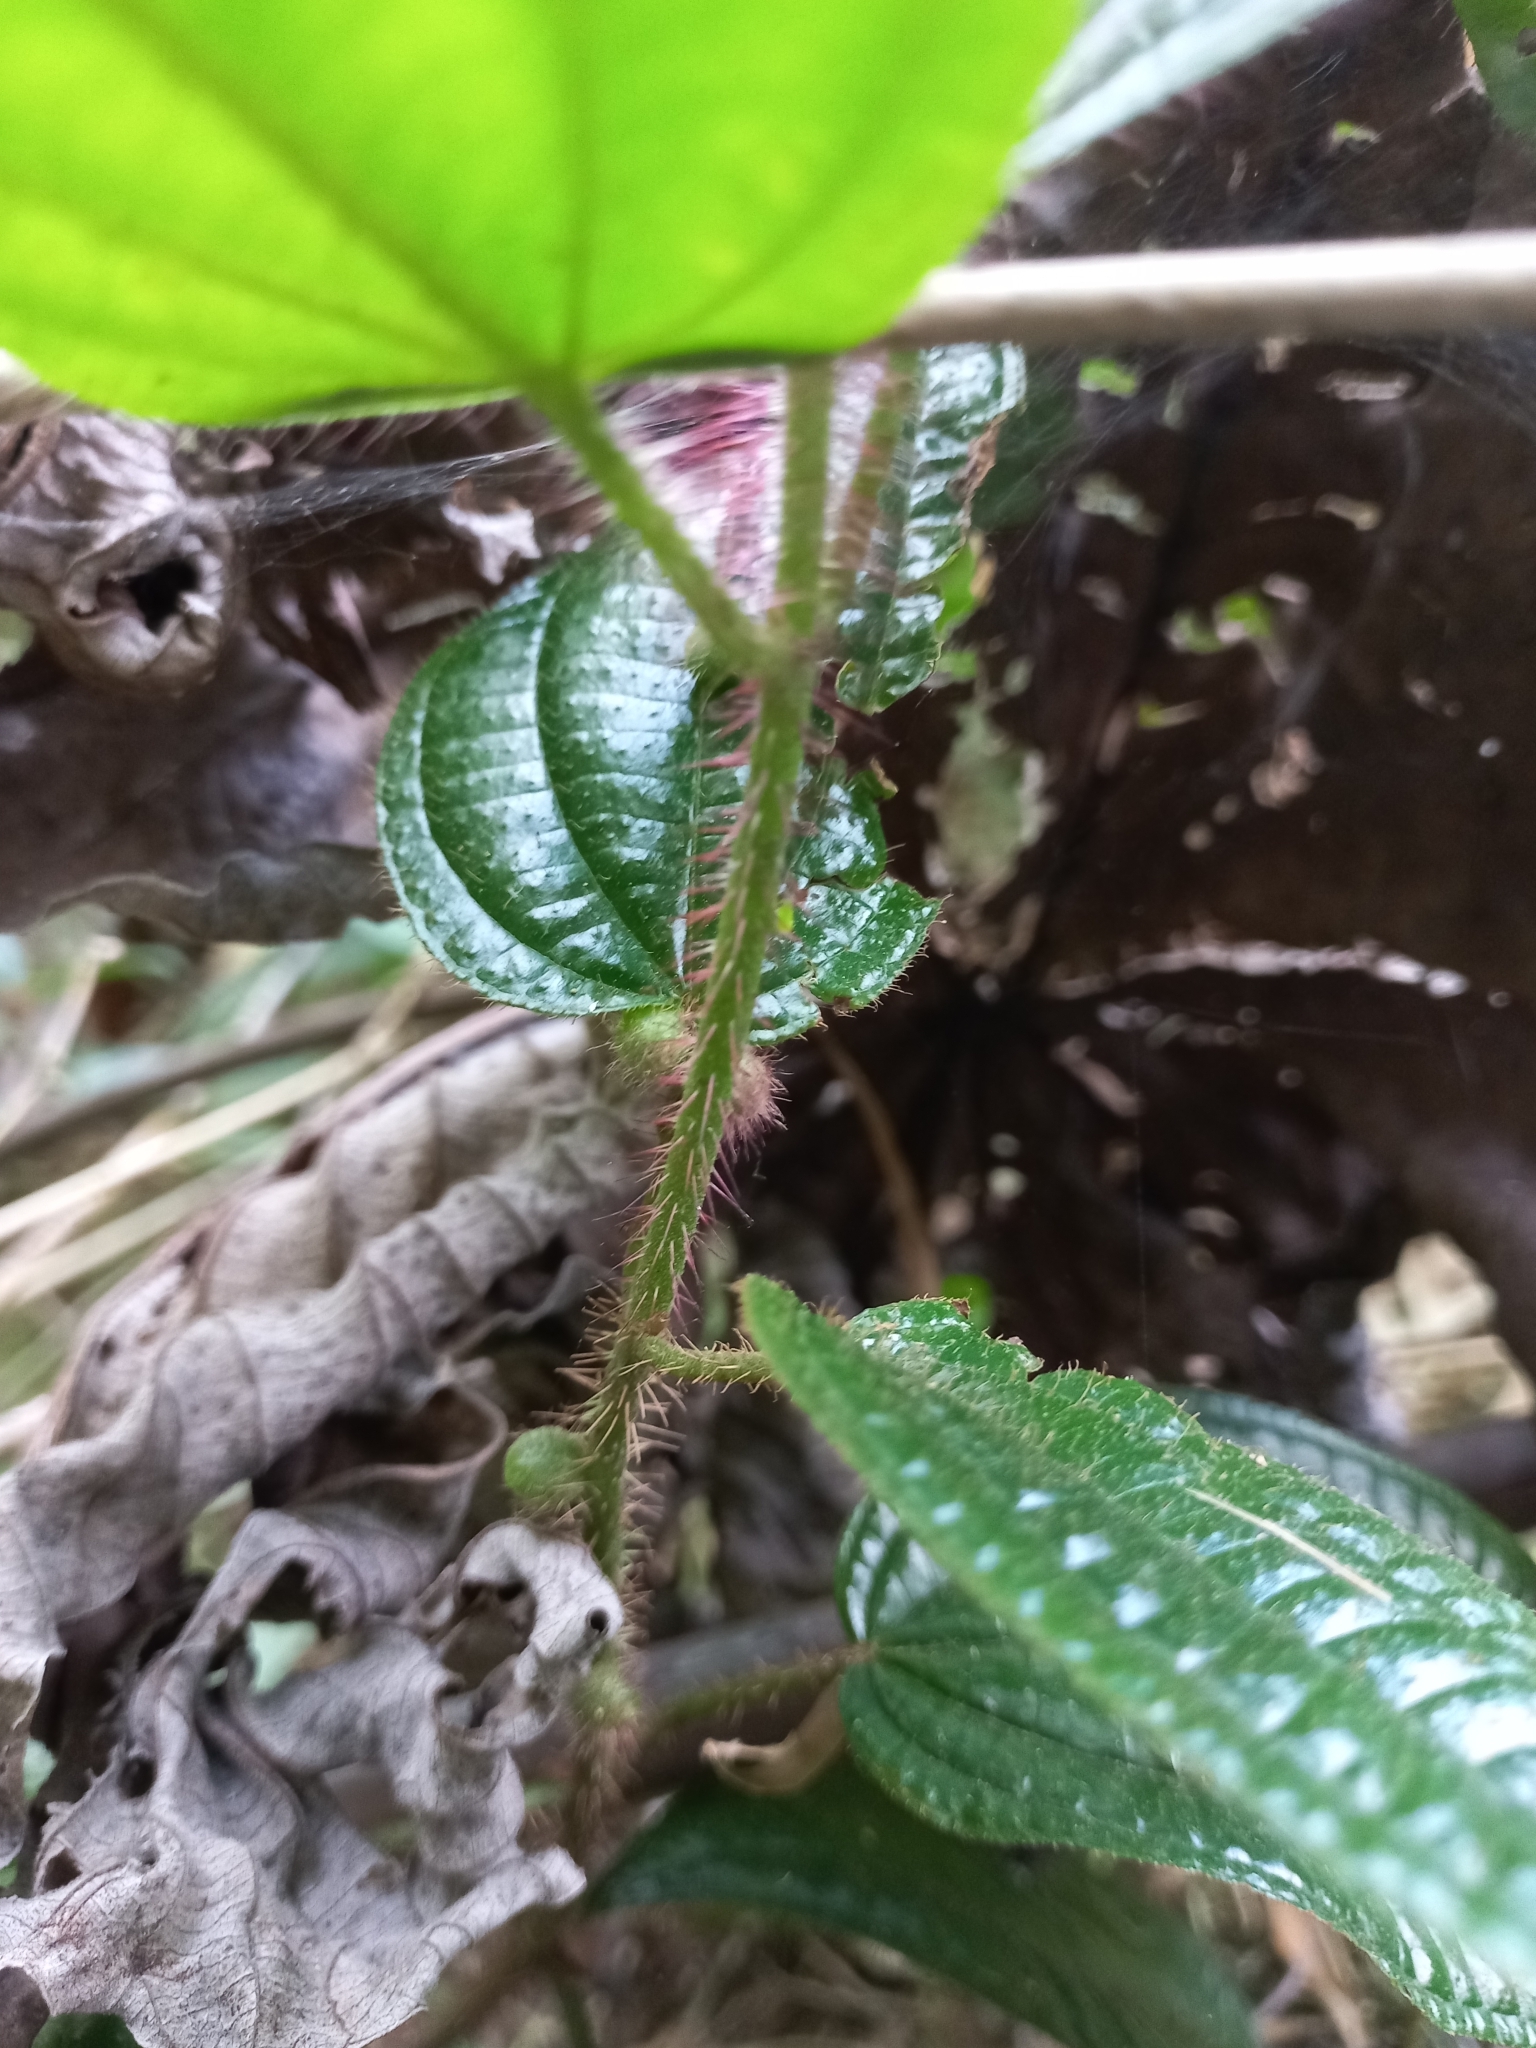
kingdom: Plantae
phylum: Tracheophyta
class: Magnoliopsida
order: Myrtales
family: Melastomataceae
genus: Miconia
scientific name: Miconia australis
